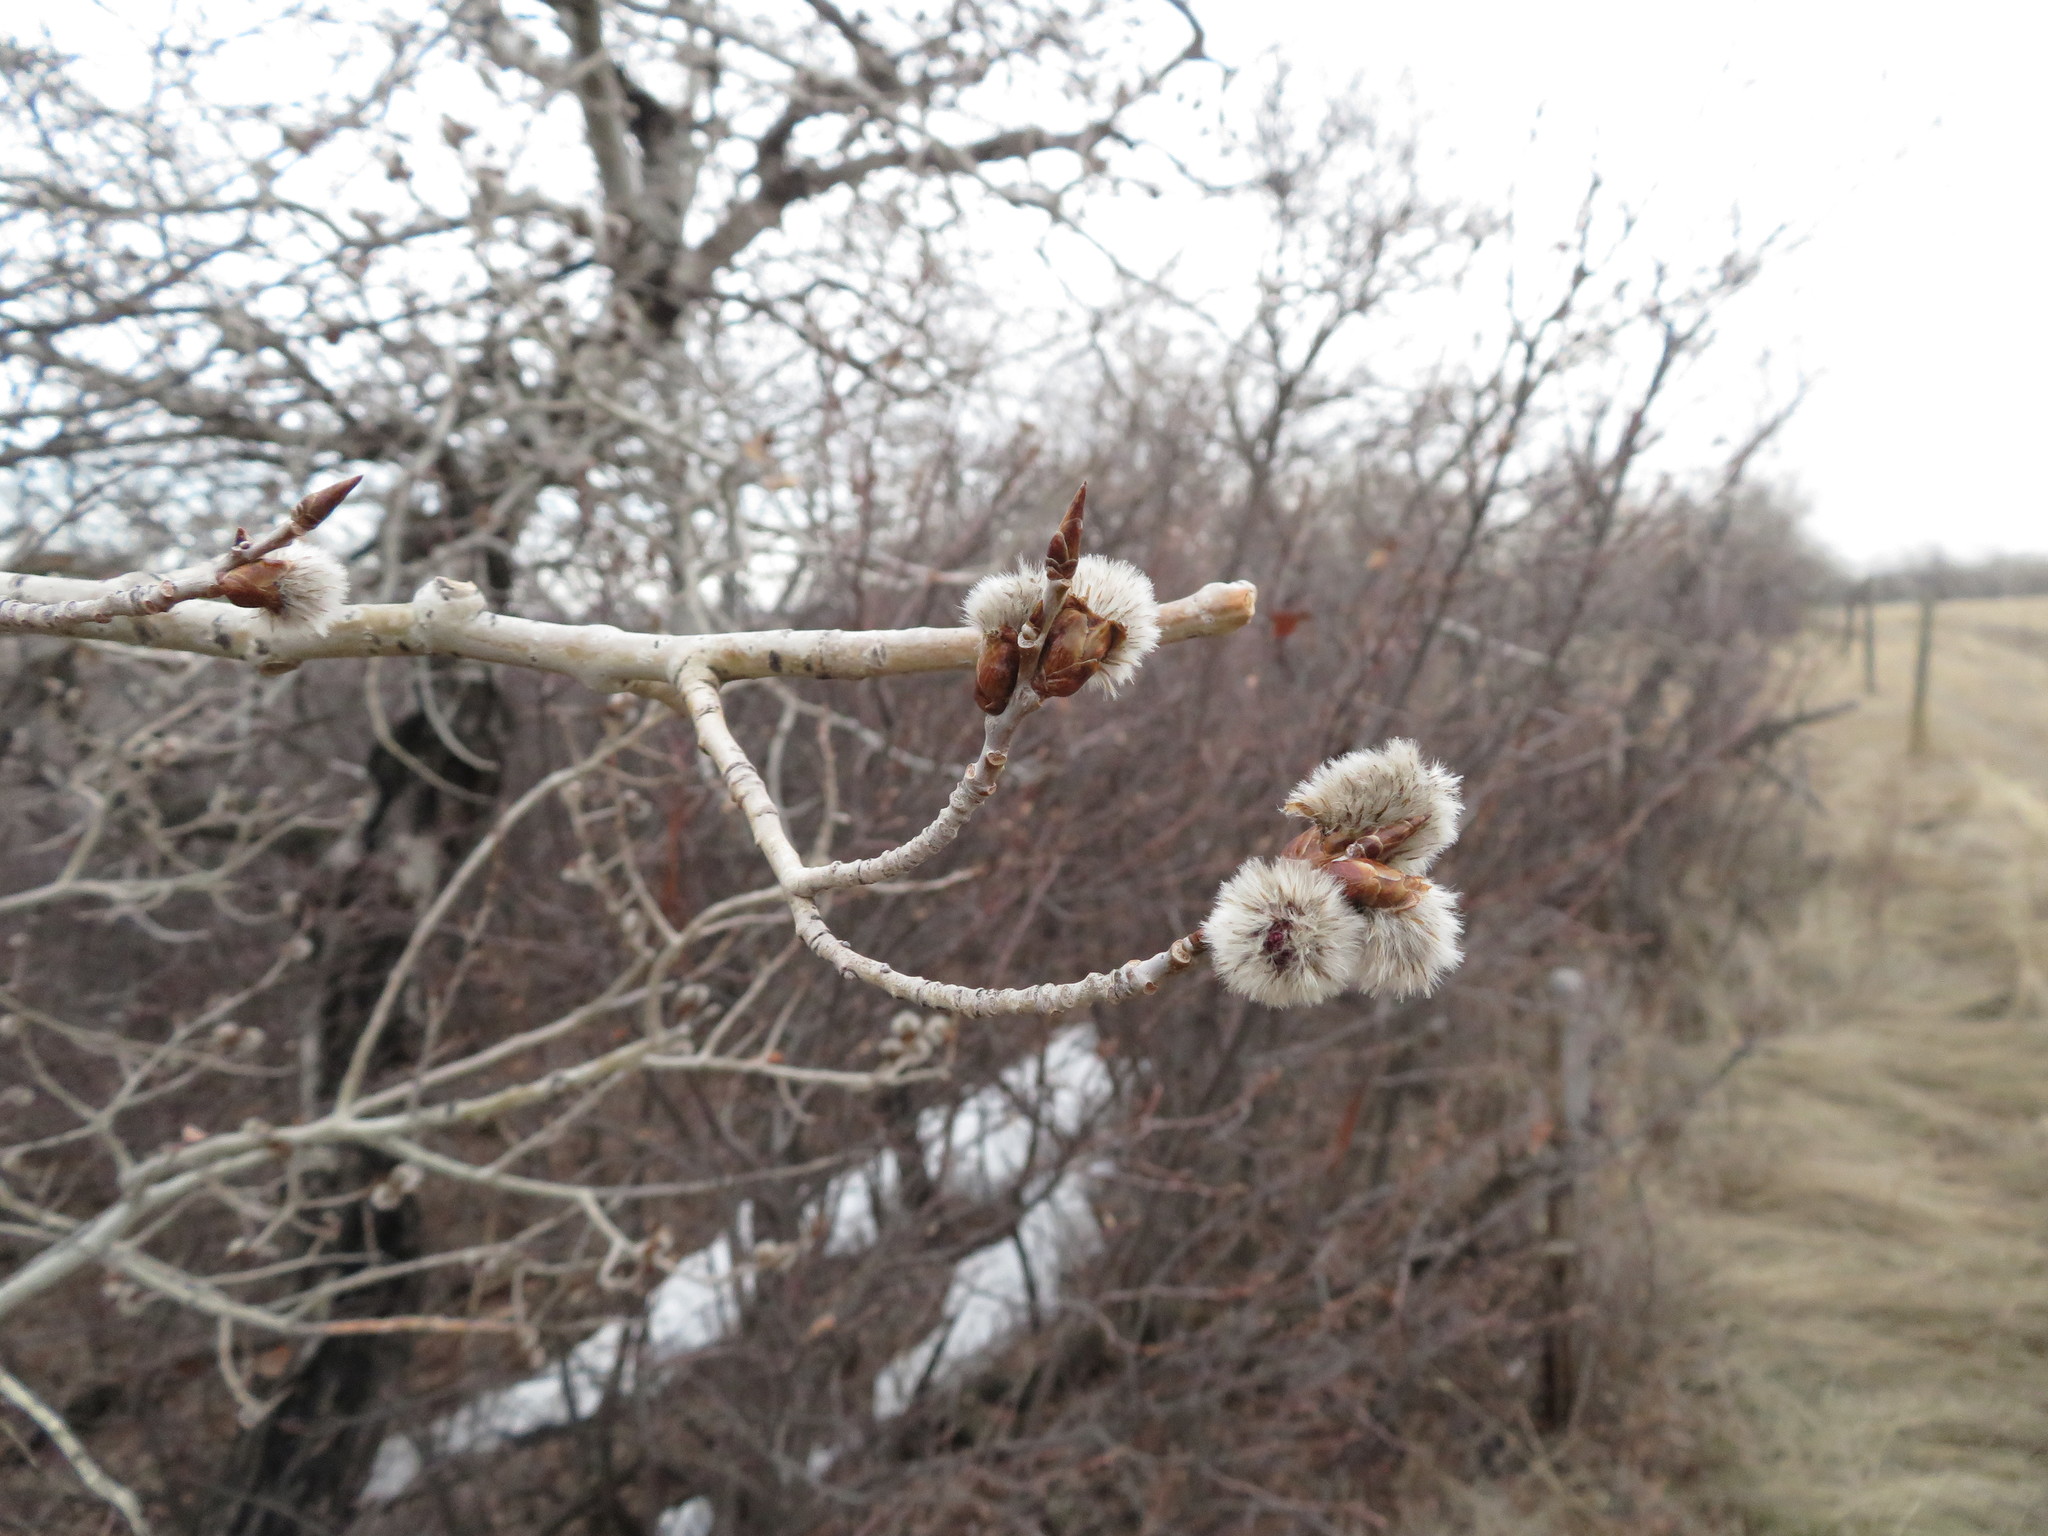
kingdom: Plantae
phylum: Tracheophyta
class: Magnoliopsida
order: Malpighiales
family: Salicaceae
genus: Populus
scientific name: Populus tremuloides
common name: Quaking aspen
